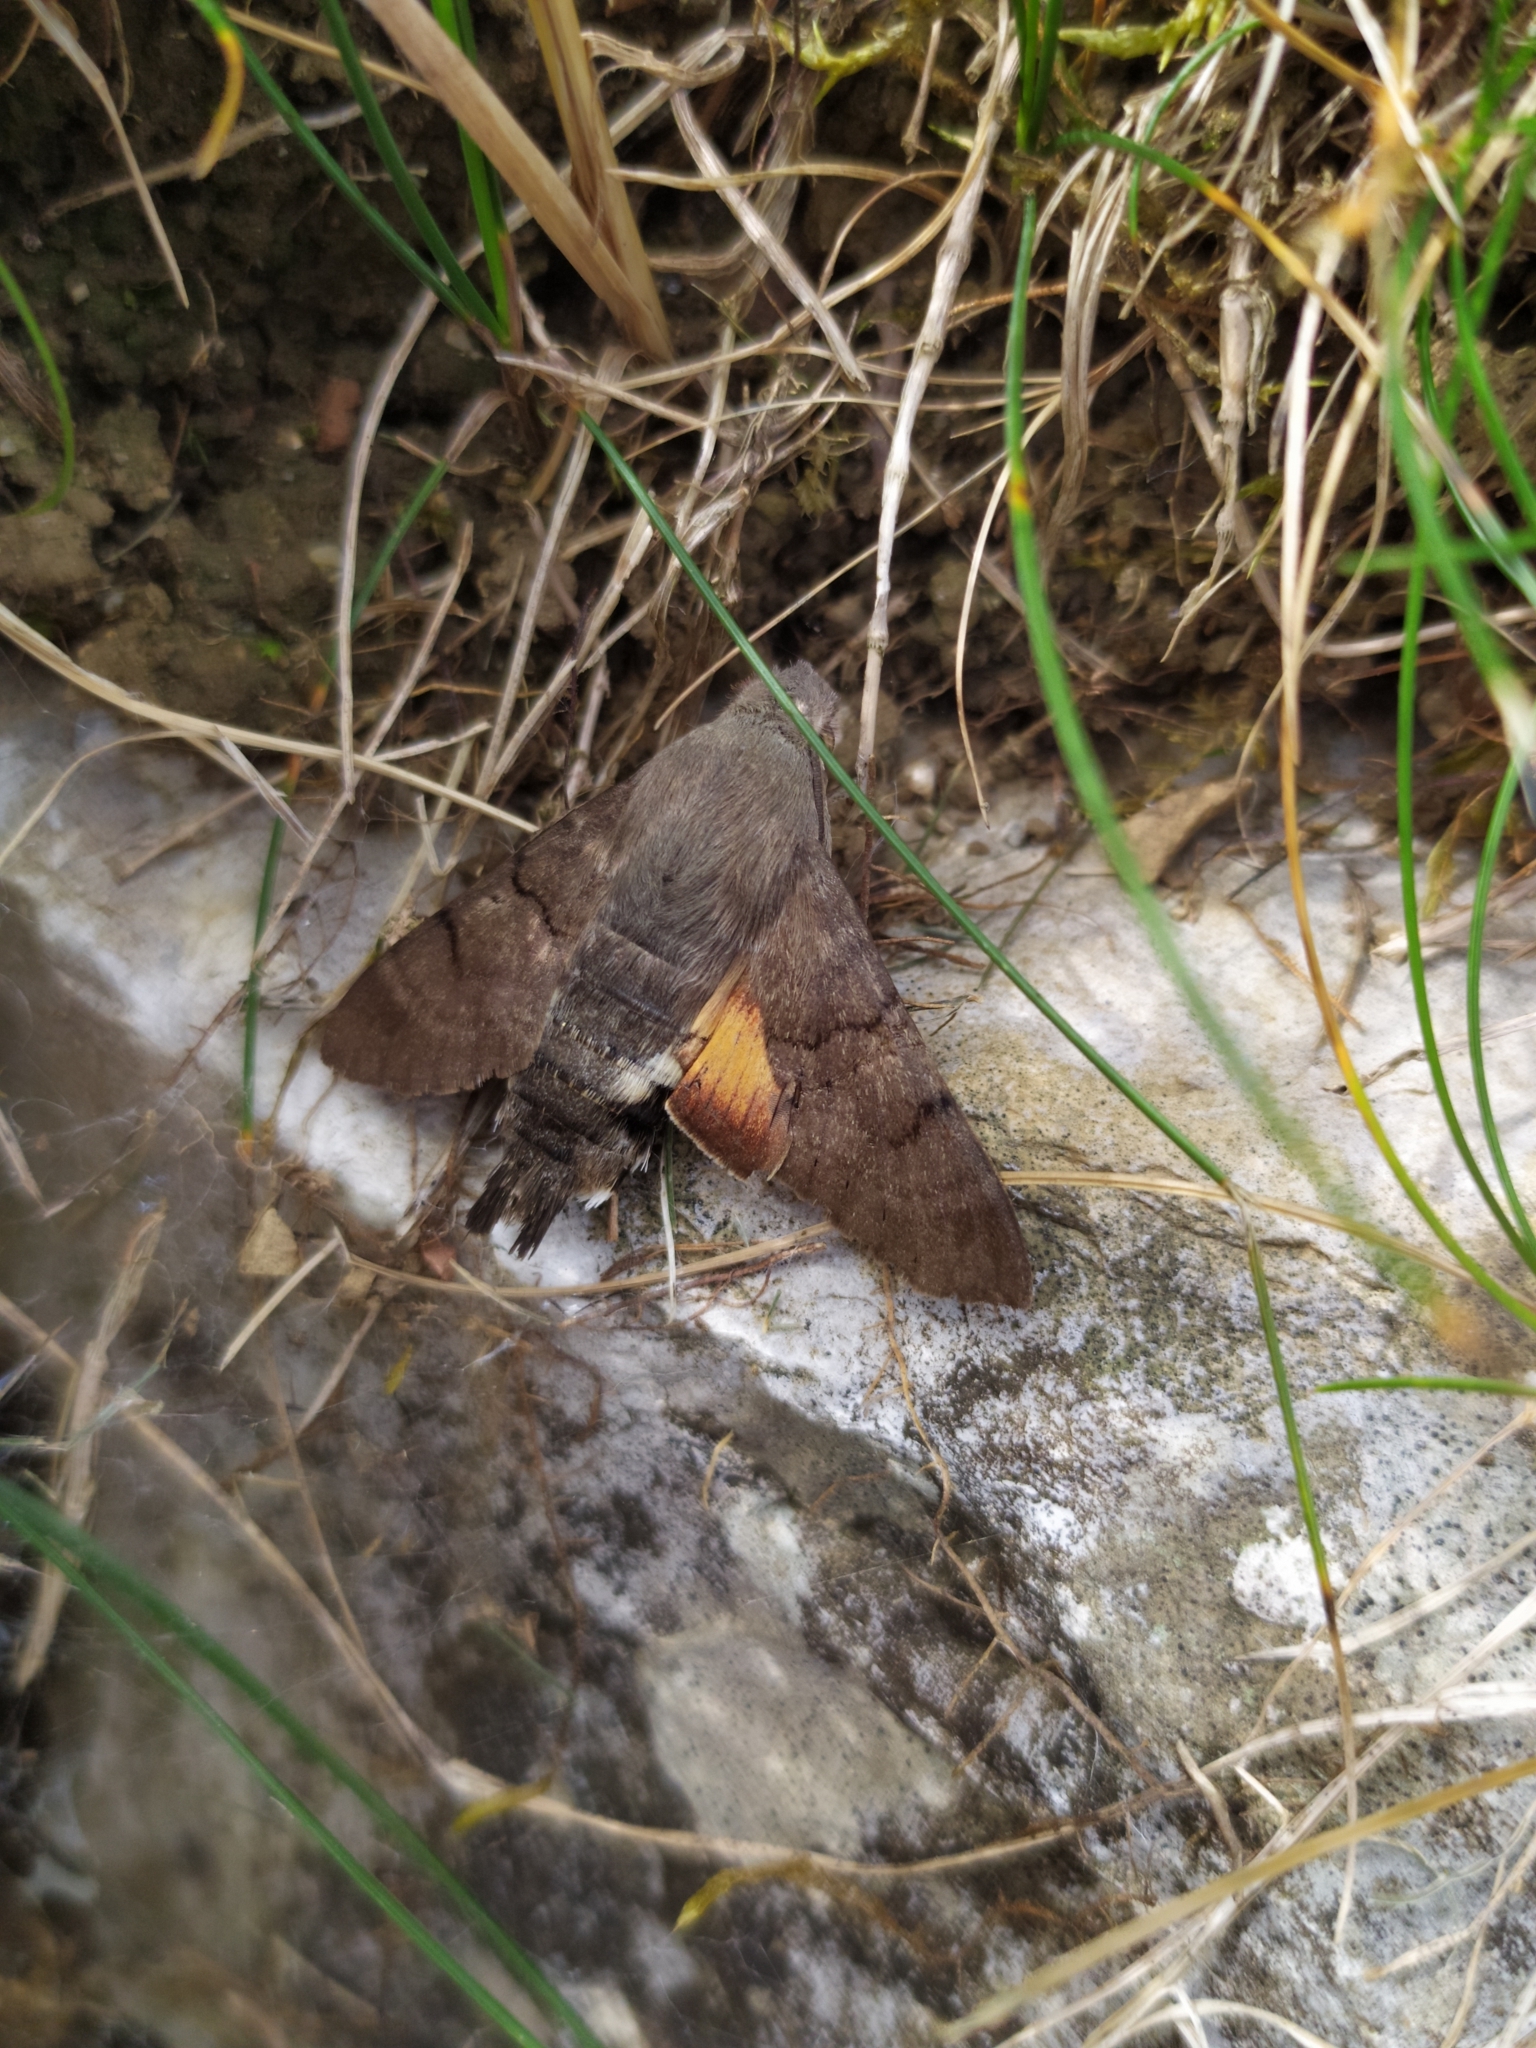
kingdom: Animalia
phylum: Arthropoda
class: Insecta
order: Lepidoptera
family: Sphingidae
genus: Macroglossum
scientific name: Macroglossum stellatarum
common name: Humming-bird hawk-moth
